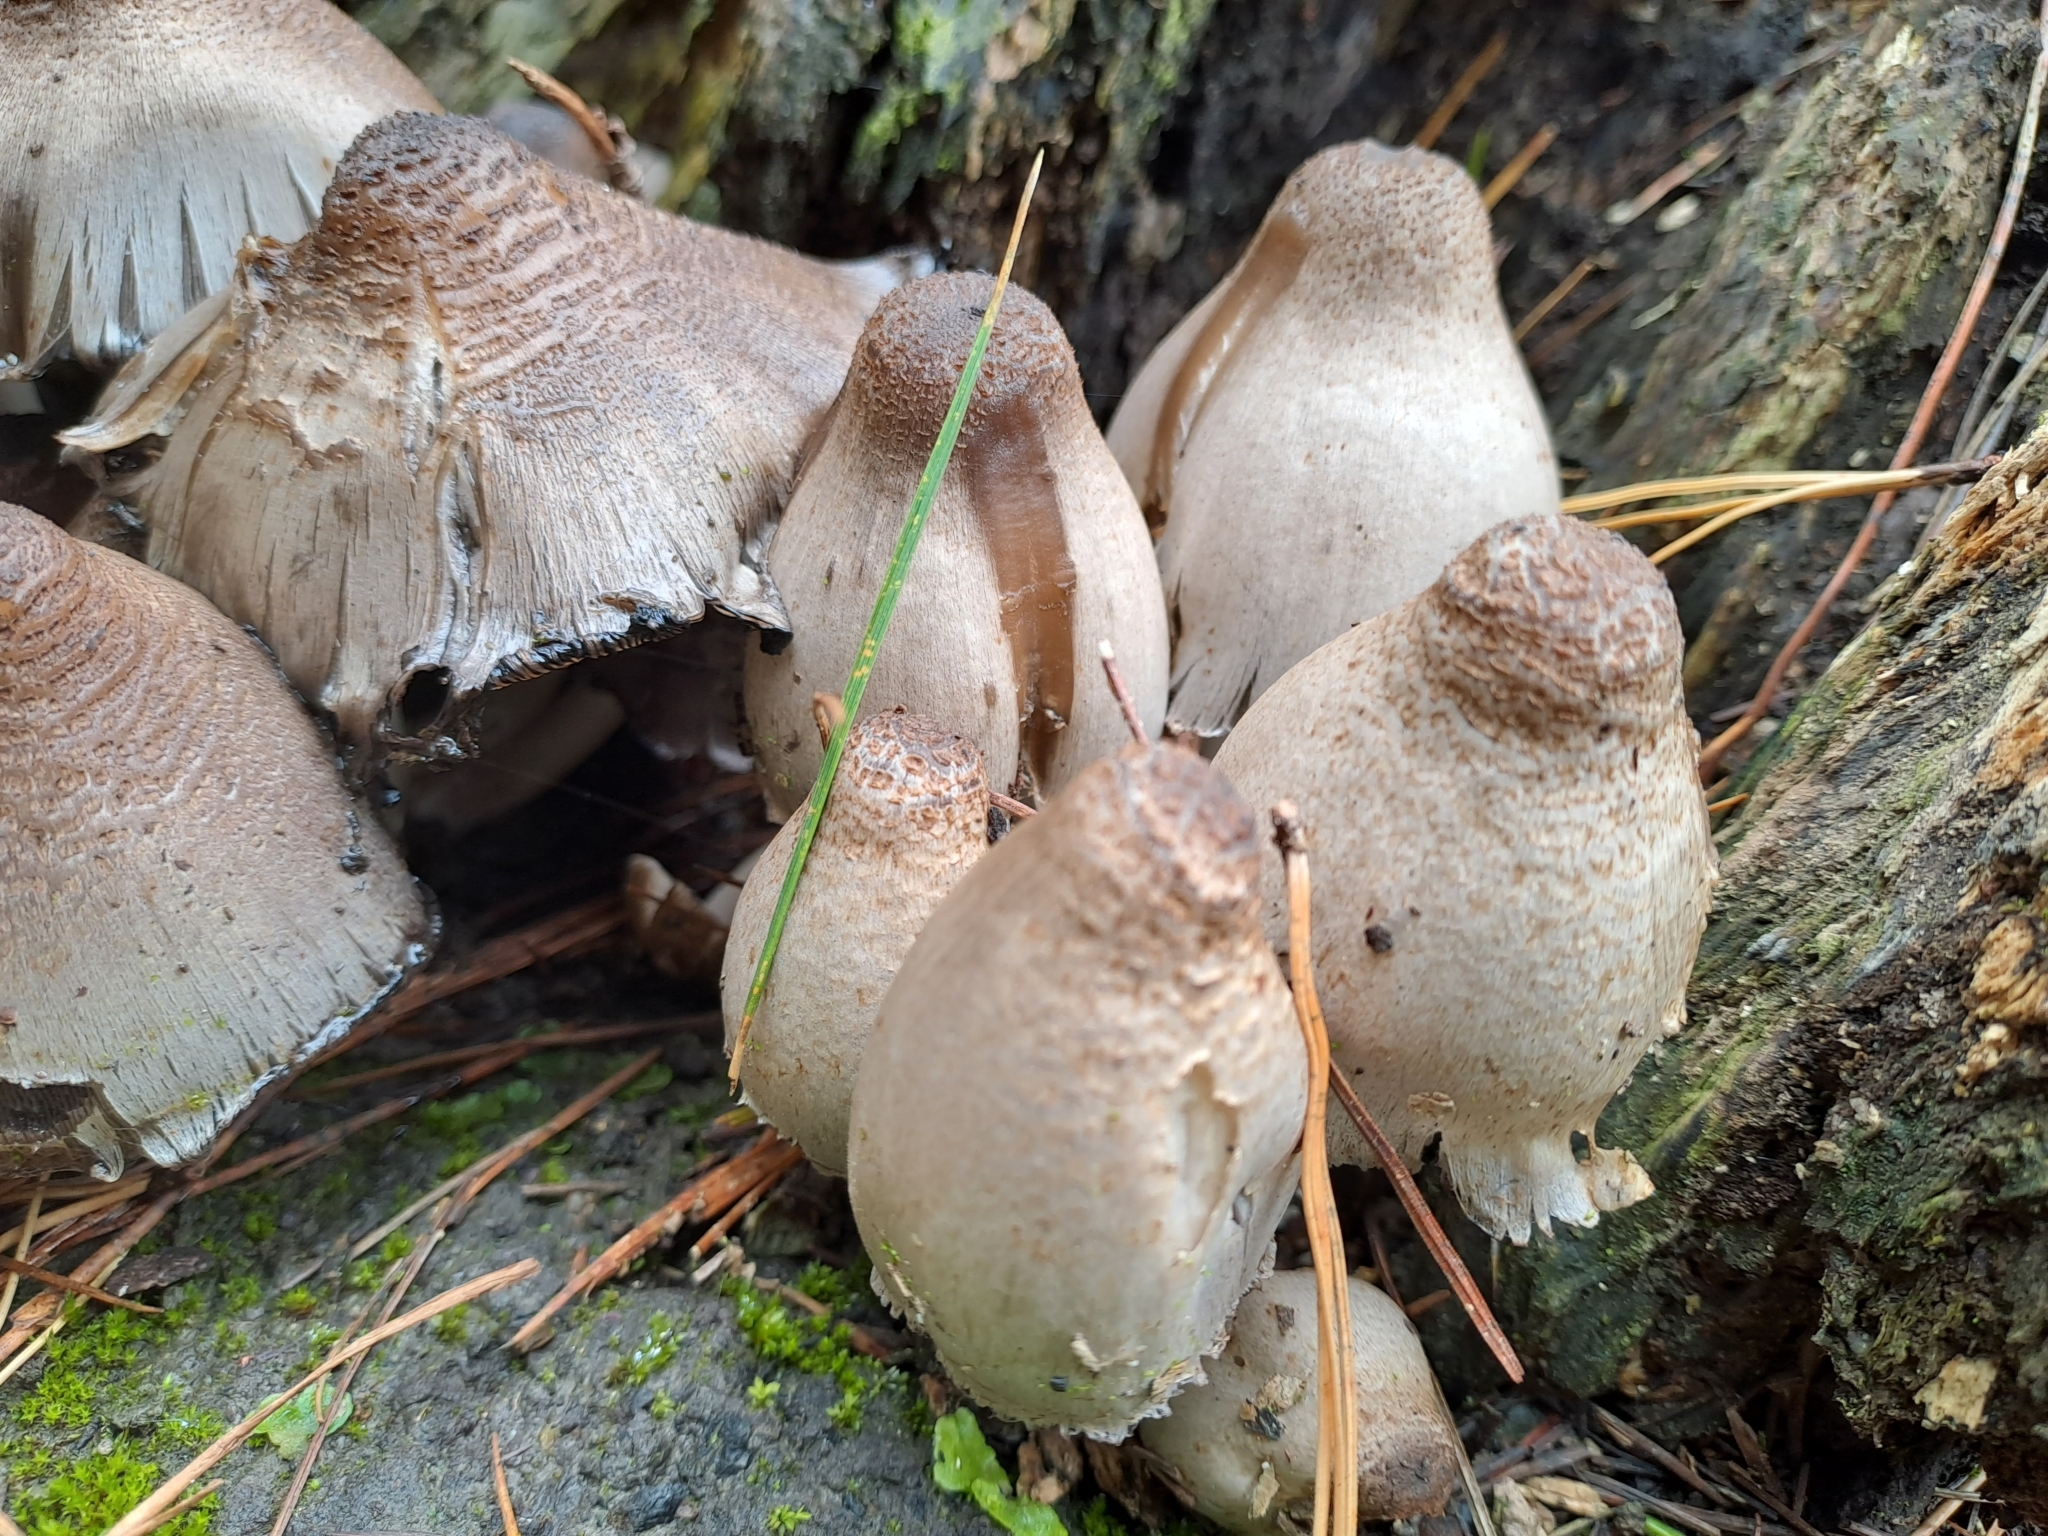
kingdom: Fungi
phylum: Basidiomycota
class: Agaricomycetes
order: Agaricales
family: Psathyrellaceae
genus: Coprinopsis
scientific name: Coprinopsis atramentaria
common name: Common ink-cap
